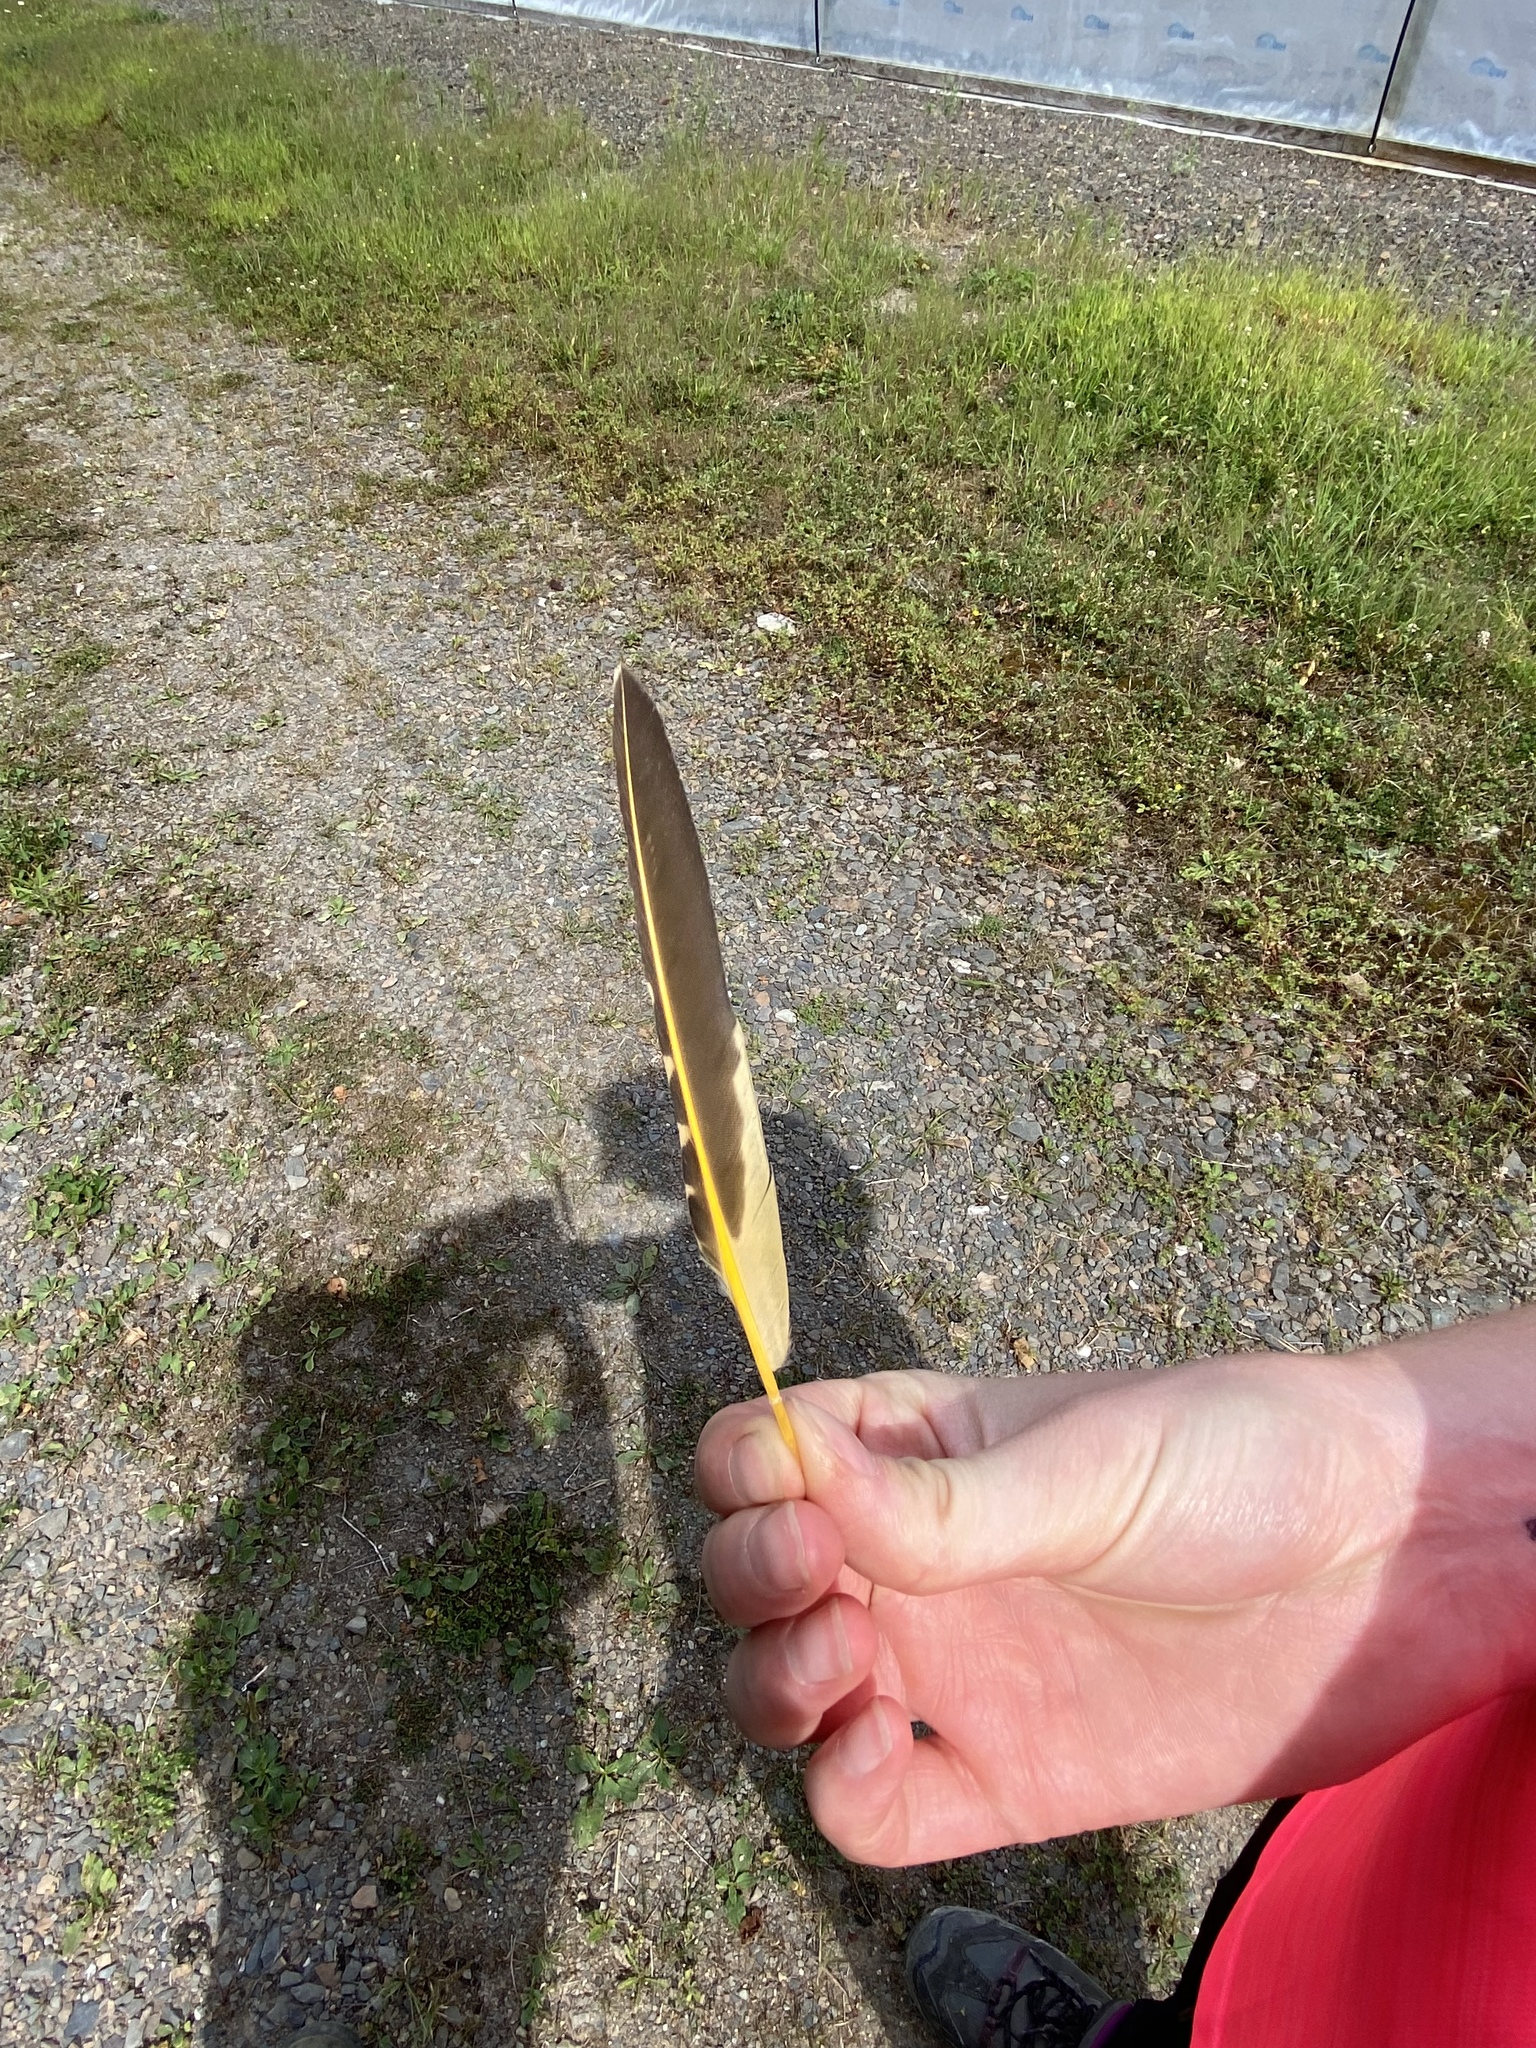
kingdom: Animalia
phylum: Chordata
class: Aves
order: Piciformes
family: Picidae
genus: Colaptes
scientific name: Colaptes auratus
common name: Northern flicker
